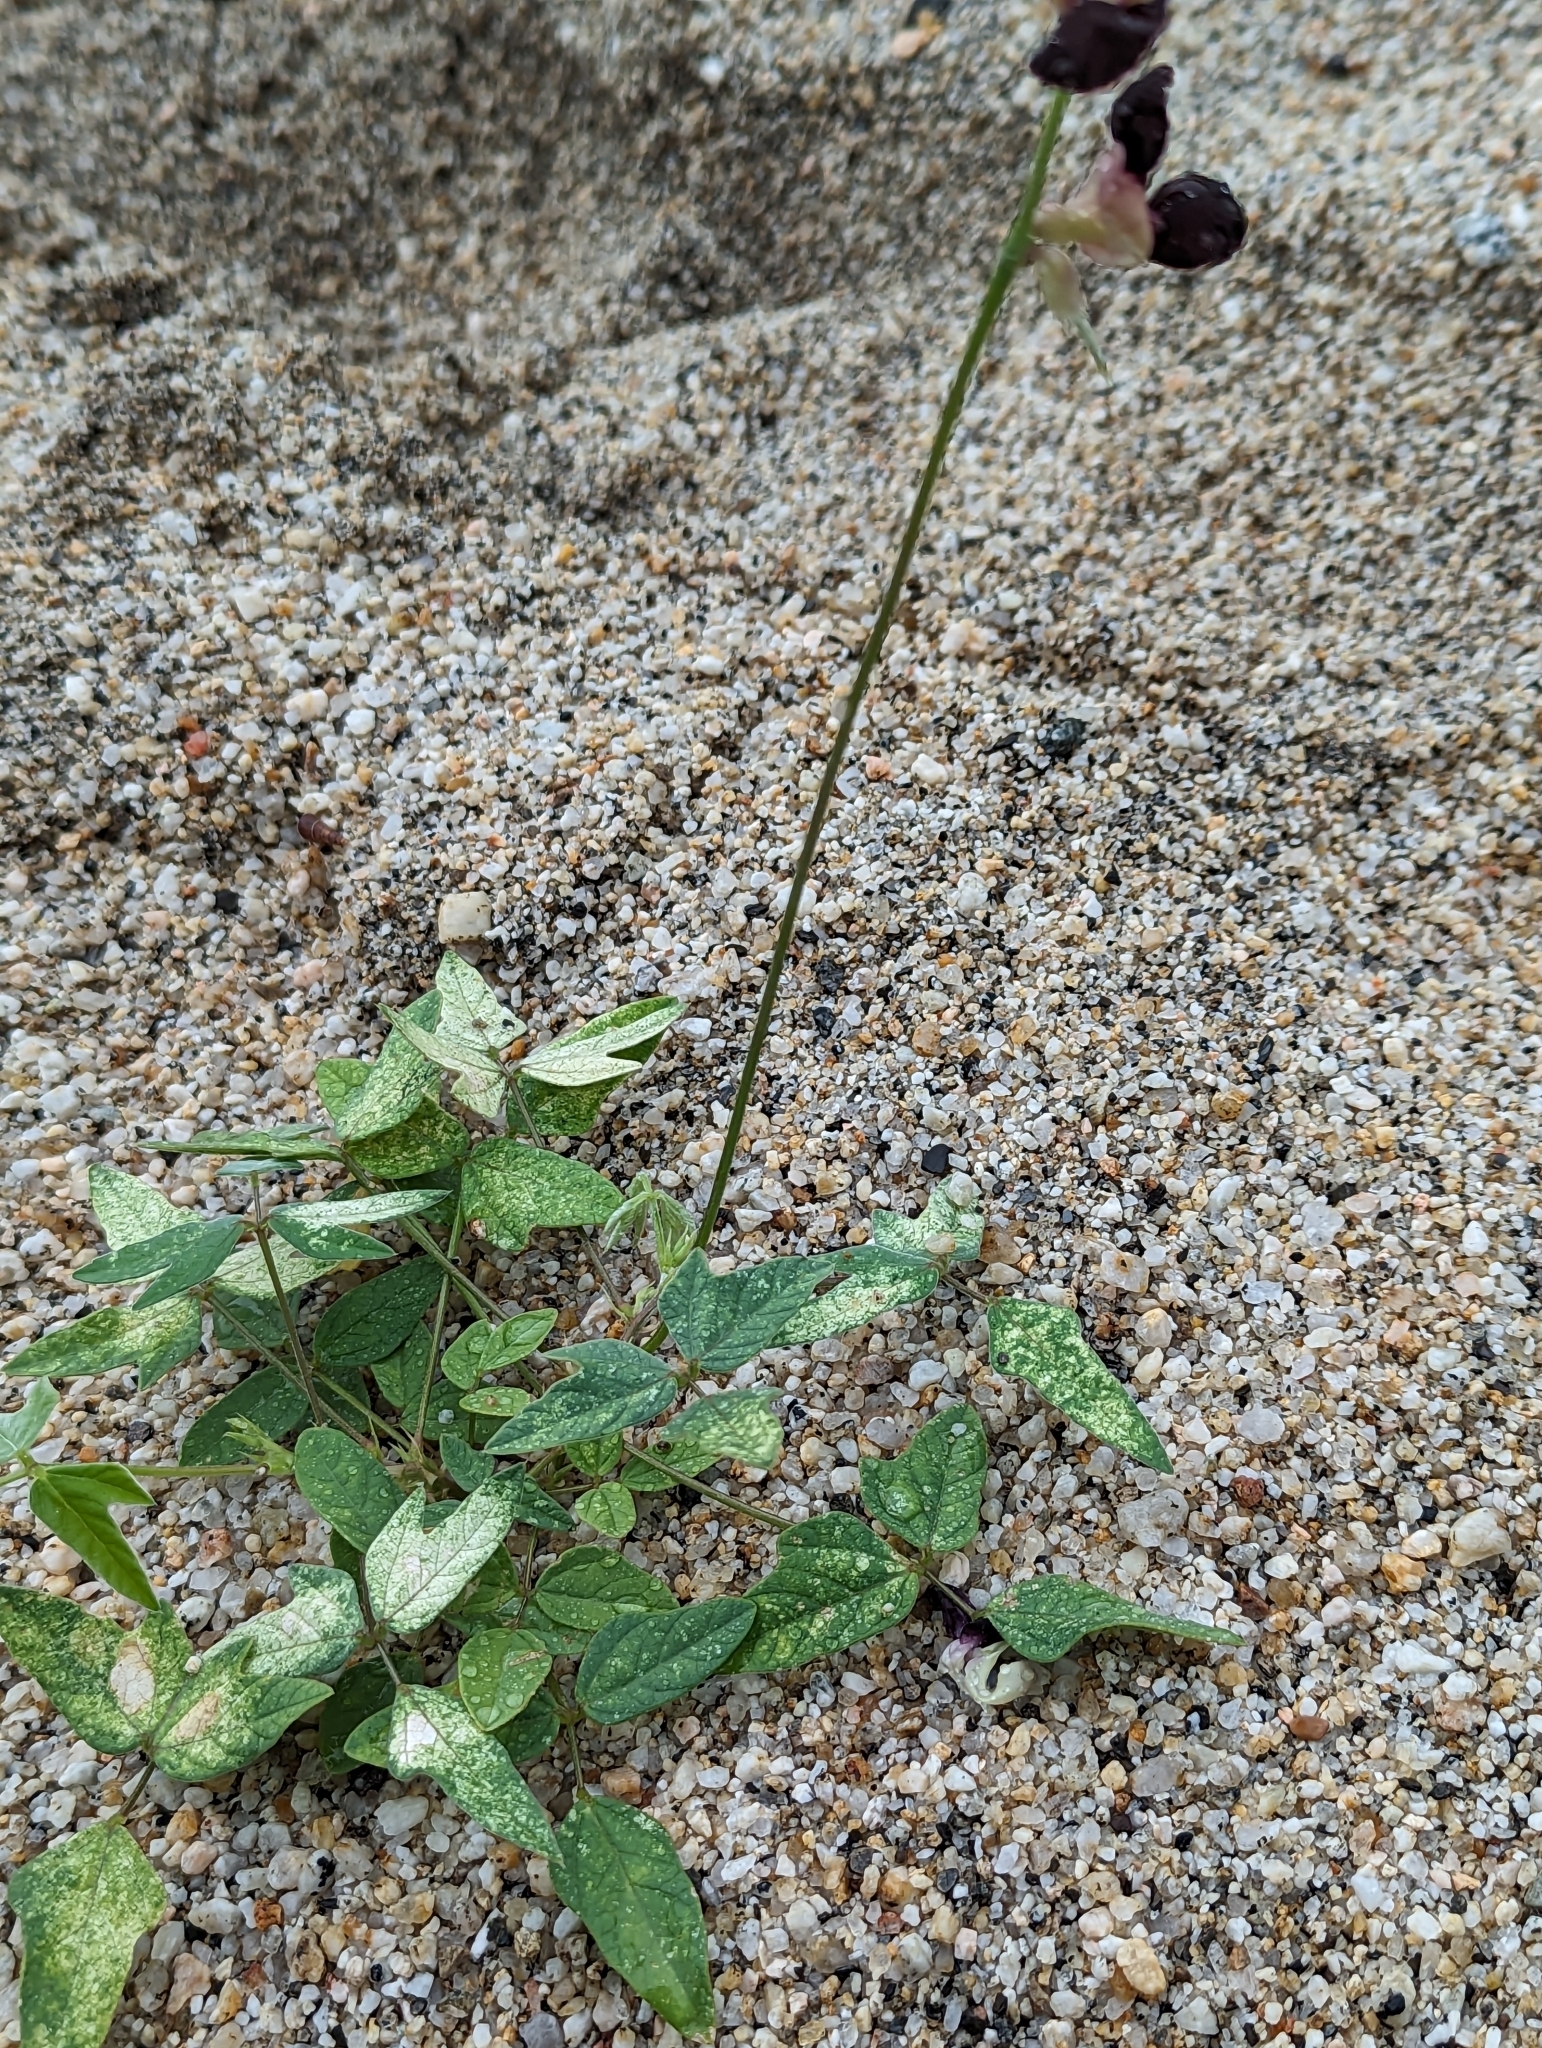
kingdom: Plantae
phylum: Tracheophyta
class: Magnoliopsida
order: Fabales
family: Fabaceae
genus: Macroptilium
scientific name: Macroptilium atropurpureum
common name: Purple bushbean
